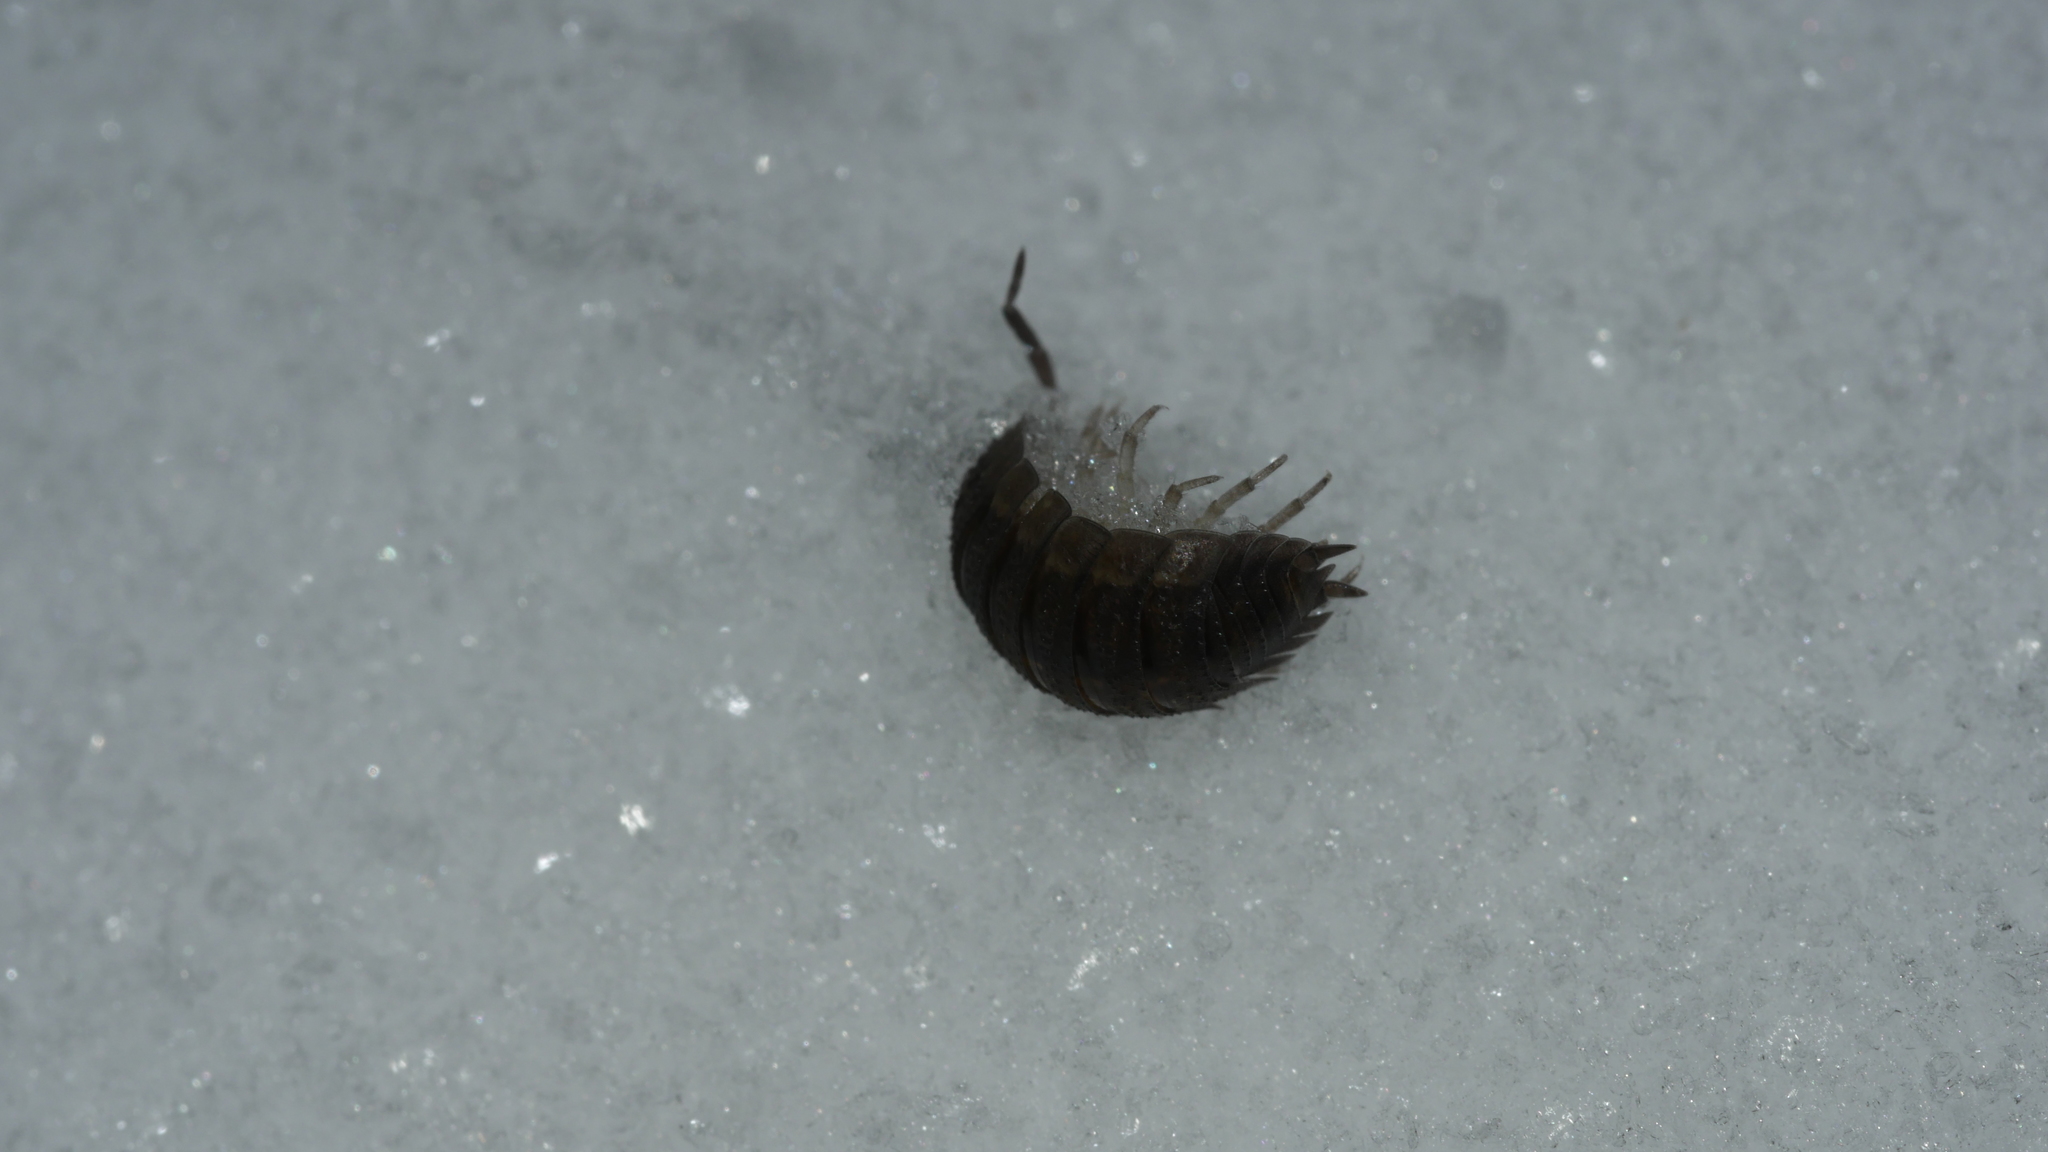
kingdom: Animalia
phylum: Arthropoda
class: Malacostraca
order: Isopoda
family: Porcellionidae
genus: Porcellio
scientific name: Porcellio scaber
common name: Common rough woodlouse
